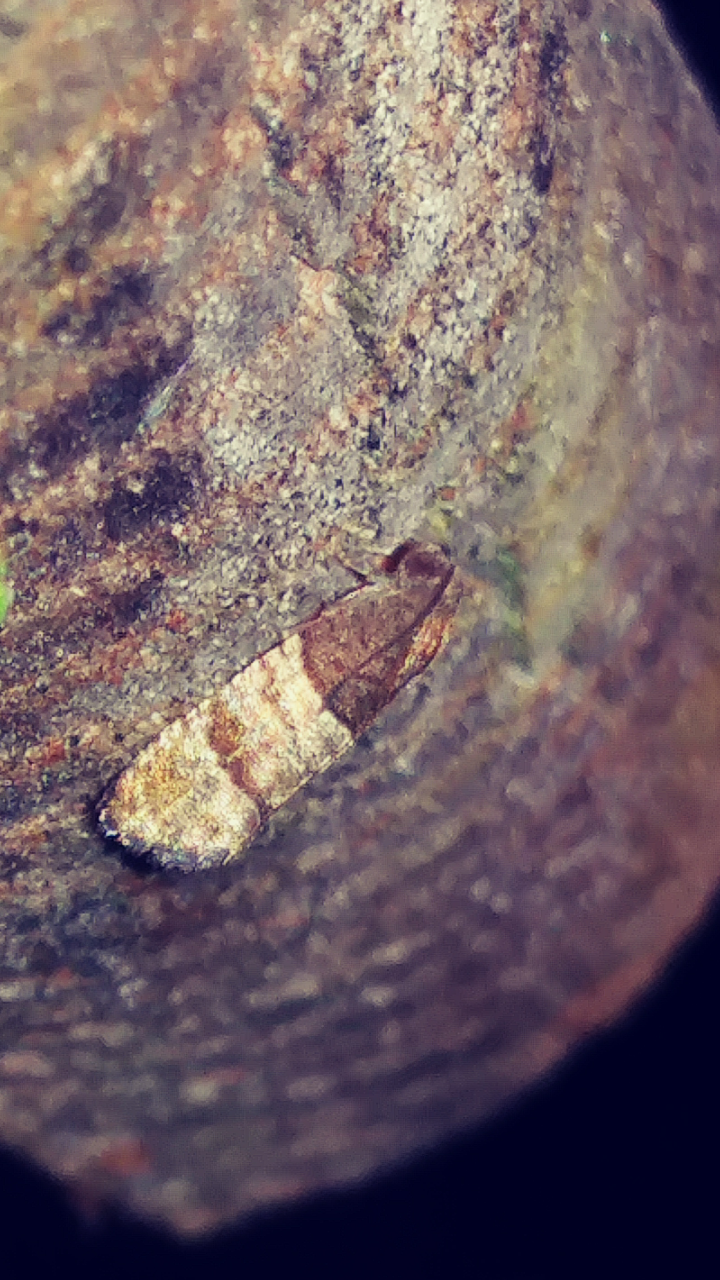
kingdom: Animalia
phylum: Arthropoda
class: Insecta
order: Lepidoptera
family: Tortricidae
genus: Larisa
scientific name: Larisa subsolana
